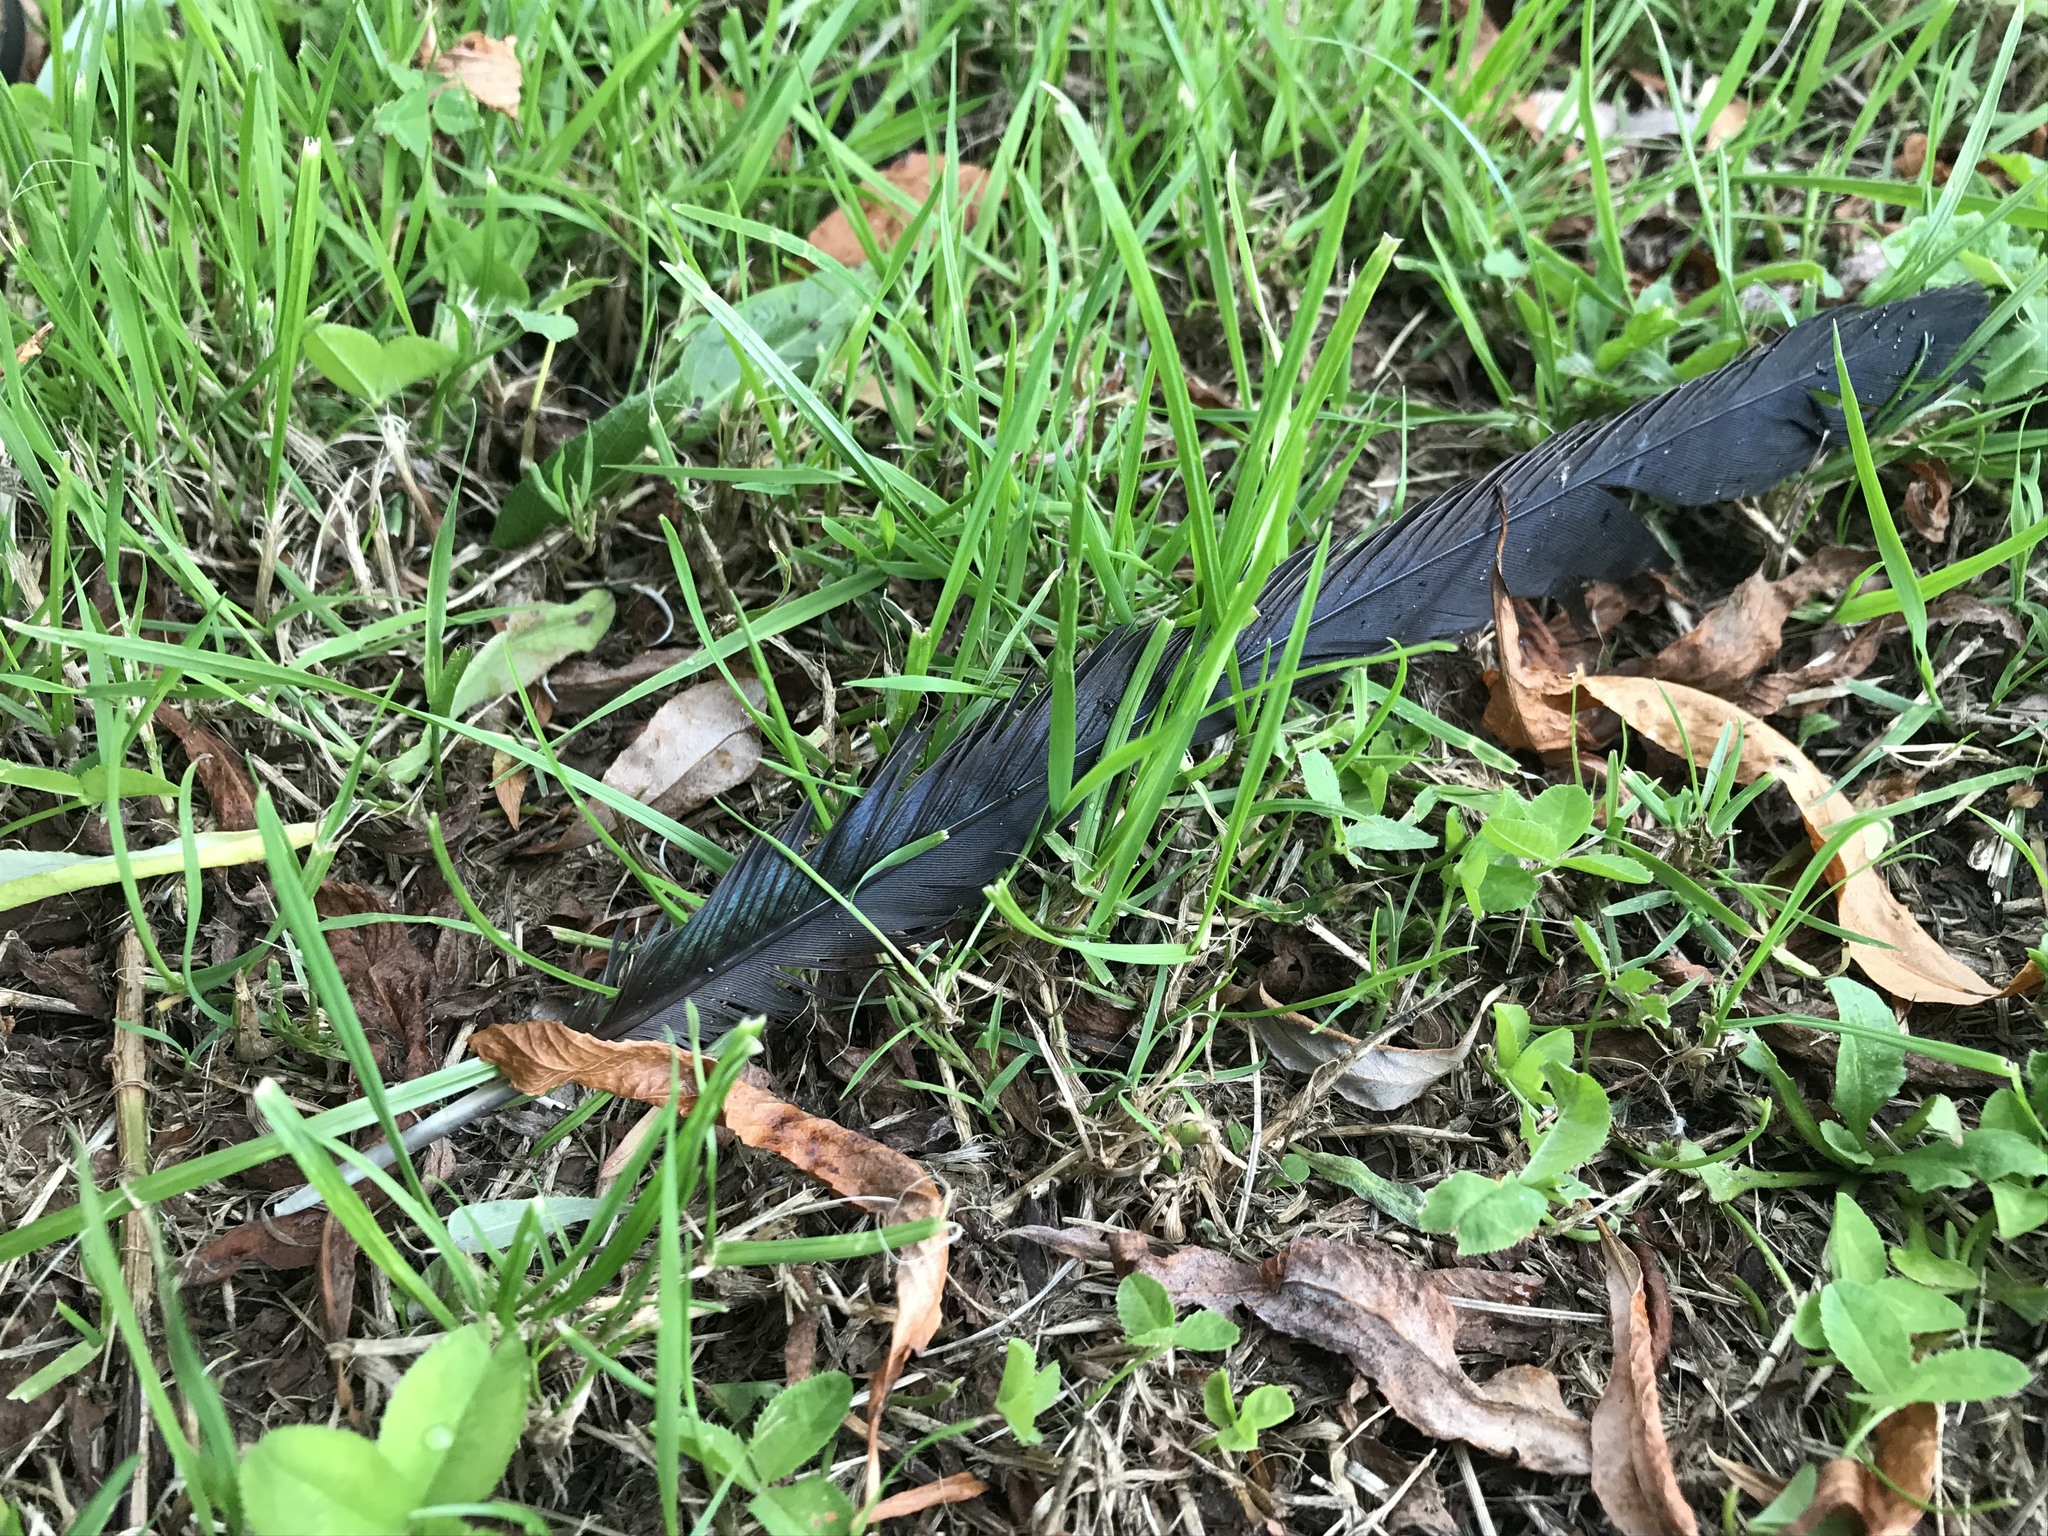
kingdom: Animalia
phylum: Chordata
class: Aves
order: Passeriformes
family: Corvidae
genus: Pica
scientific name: Pica pica
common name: Eurasian magpie
